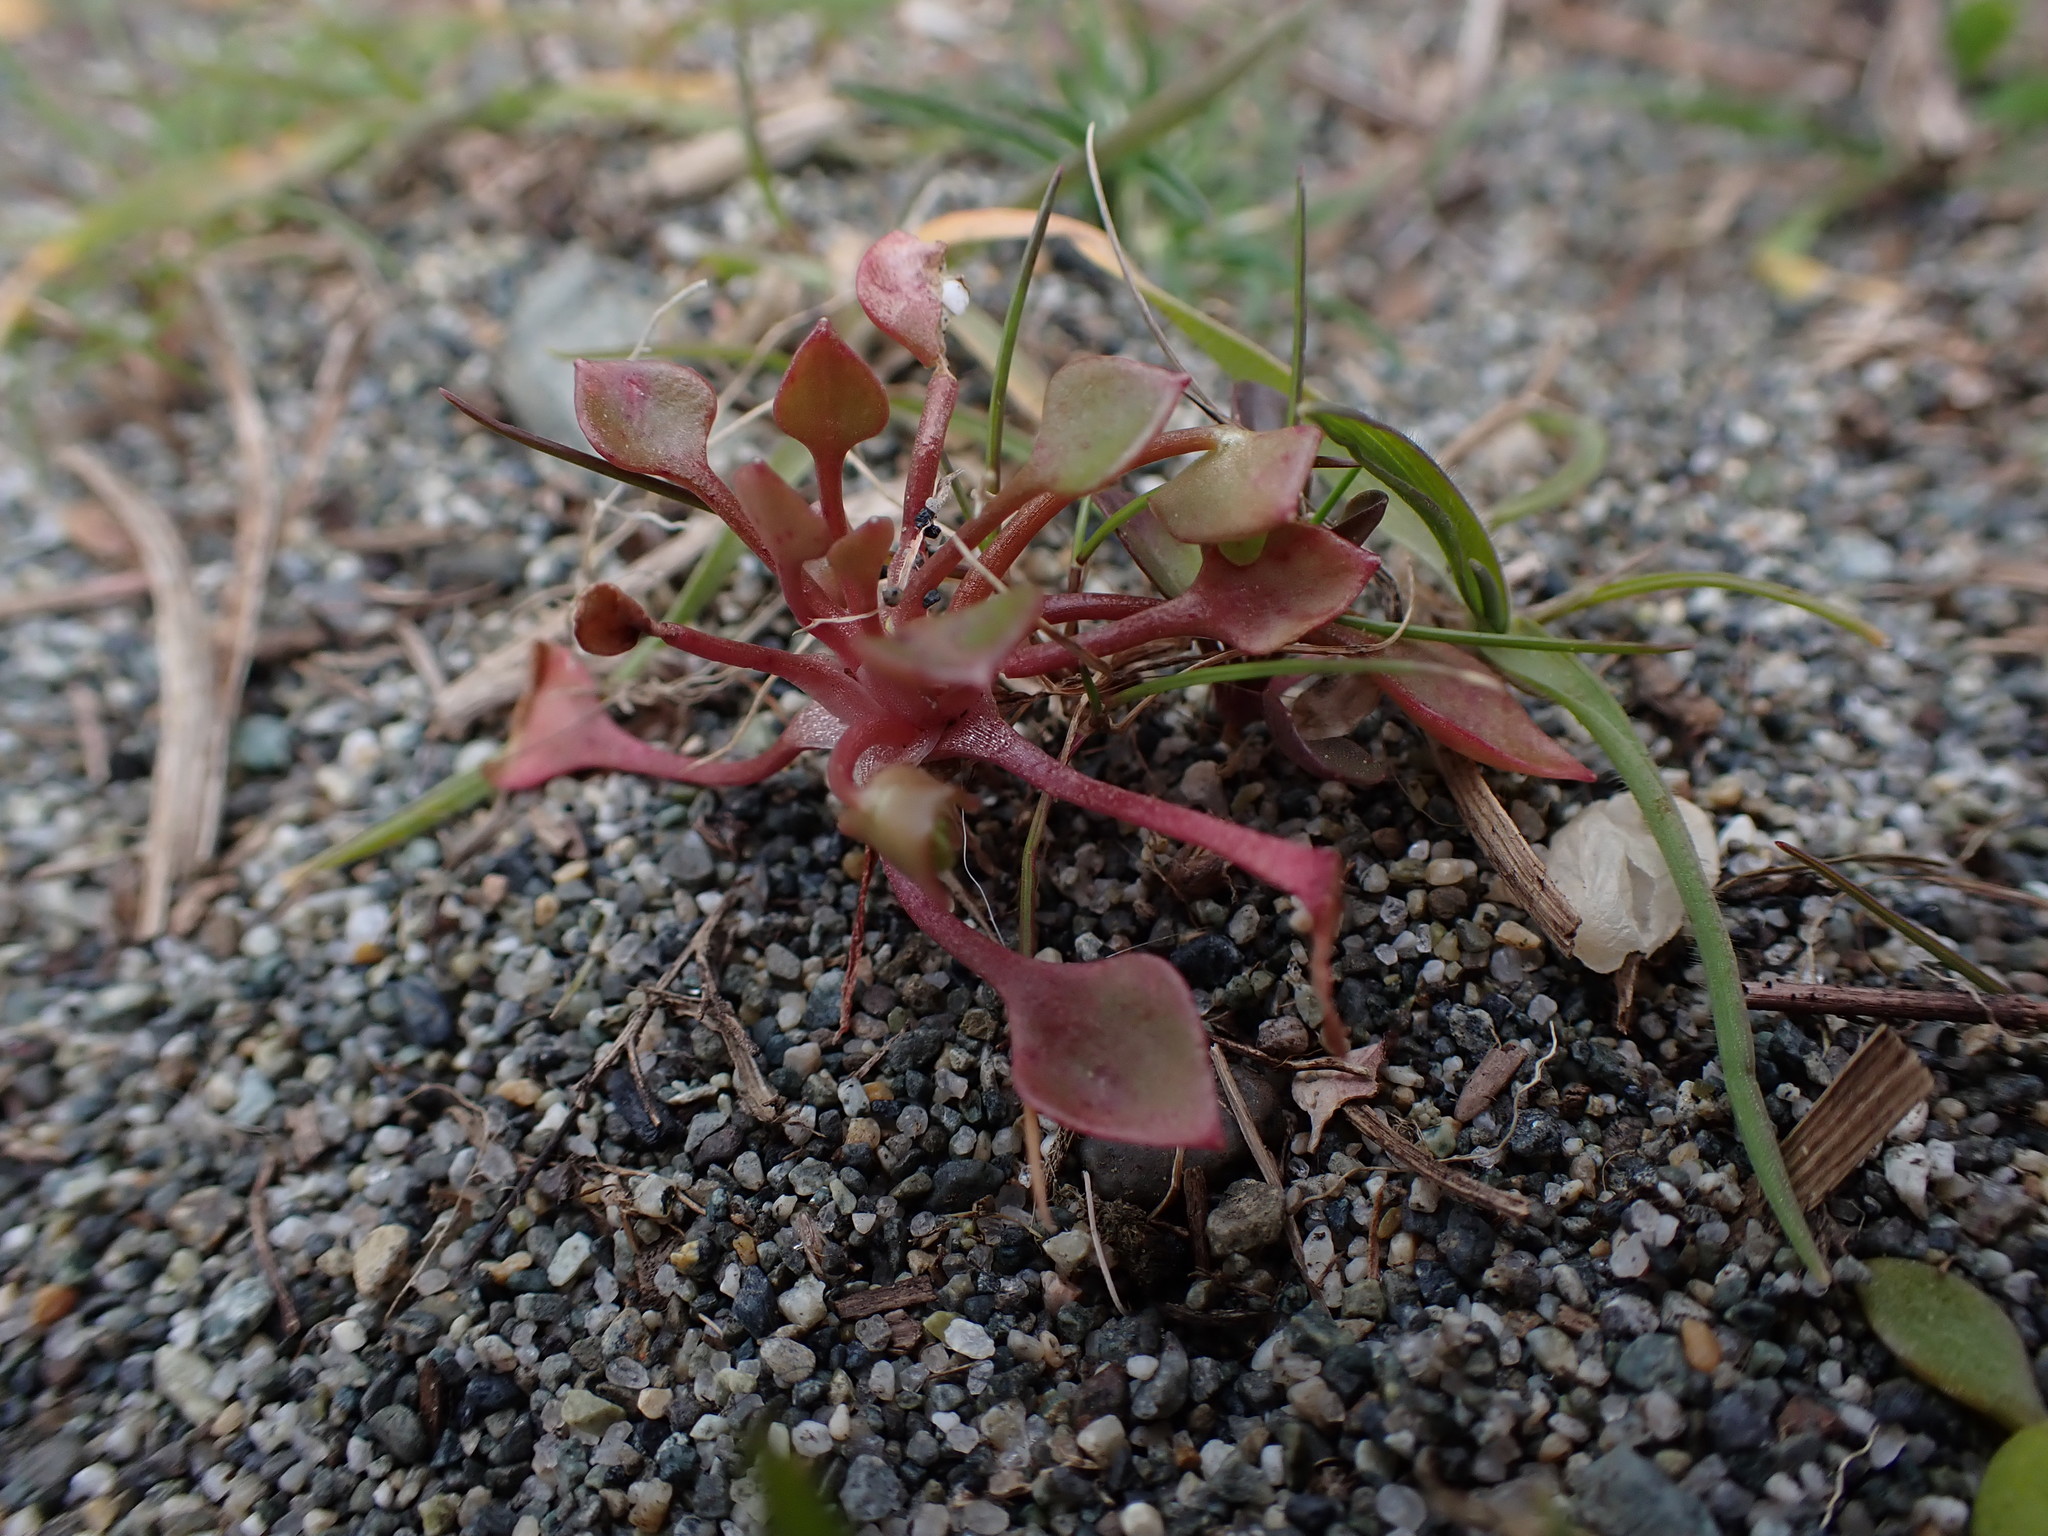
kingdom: Plantae
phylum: Tracheophyta
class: Magnoliopsida
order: Caryophyllales
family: Montiaceae
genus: Claytonia
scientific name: Claytonia rubra
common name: Erubescent miner's-lettuce
